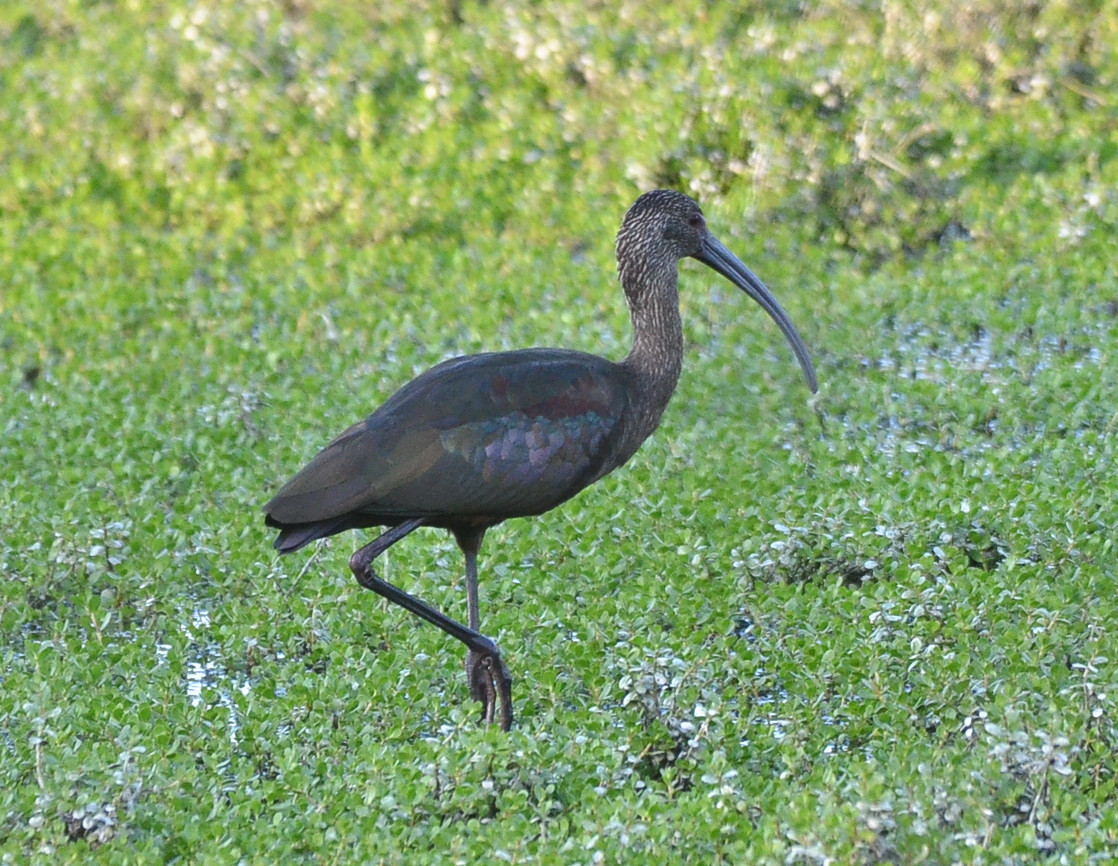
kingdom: Animalia
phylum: Chordata
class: Aves
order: Pelecaniformes
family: Threskiornithidae
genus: Plegadis
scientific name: Plegadis chihi
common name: White-faced ibis
